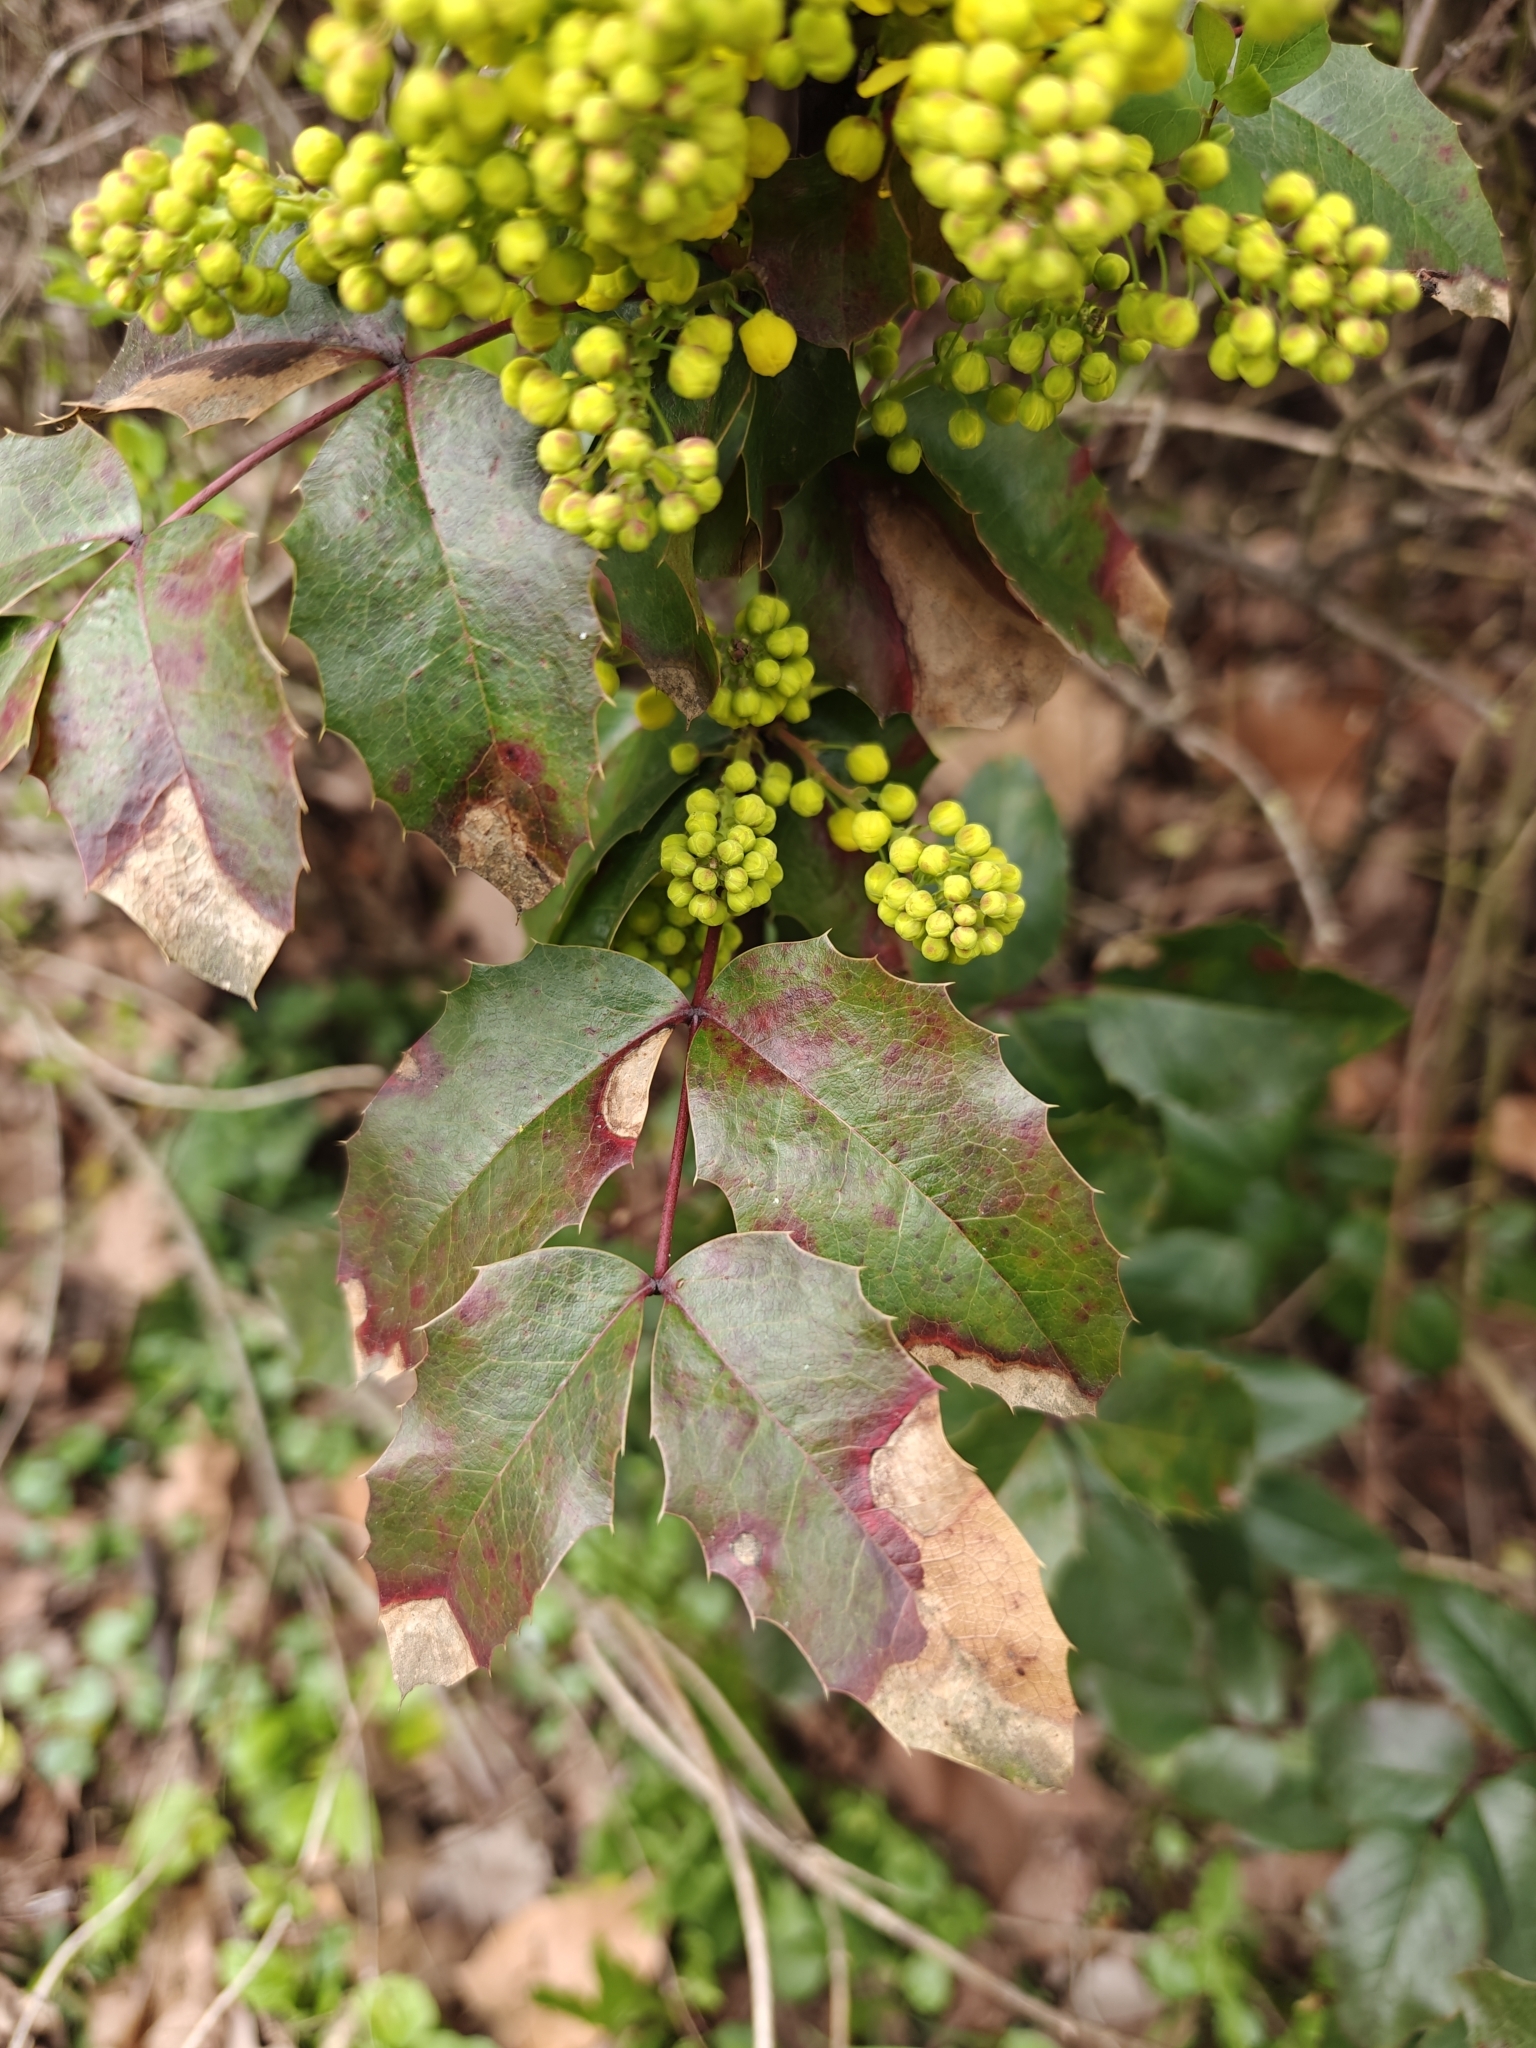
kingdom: Plantae
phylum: Tracheophyta
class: Magnoliopsida
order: Ranunculales
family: Berberidaceae
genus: Mahonia
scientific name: Mahonia aquifolium
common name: Oregon-grape
